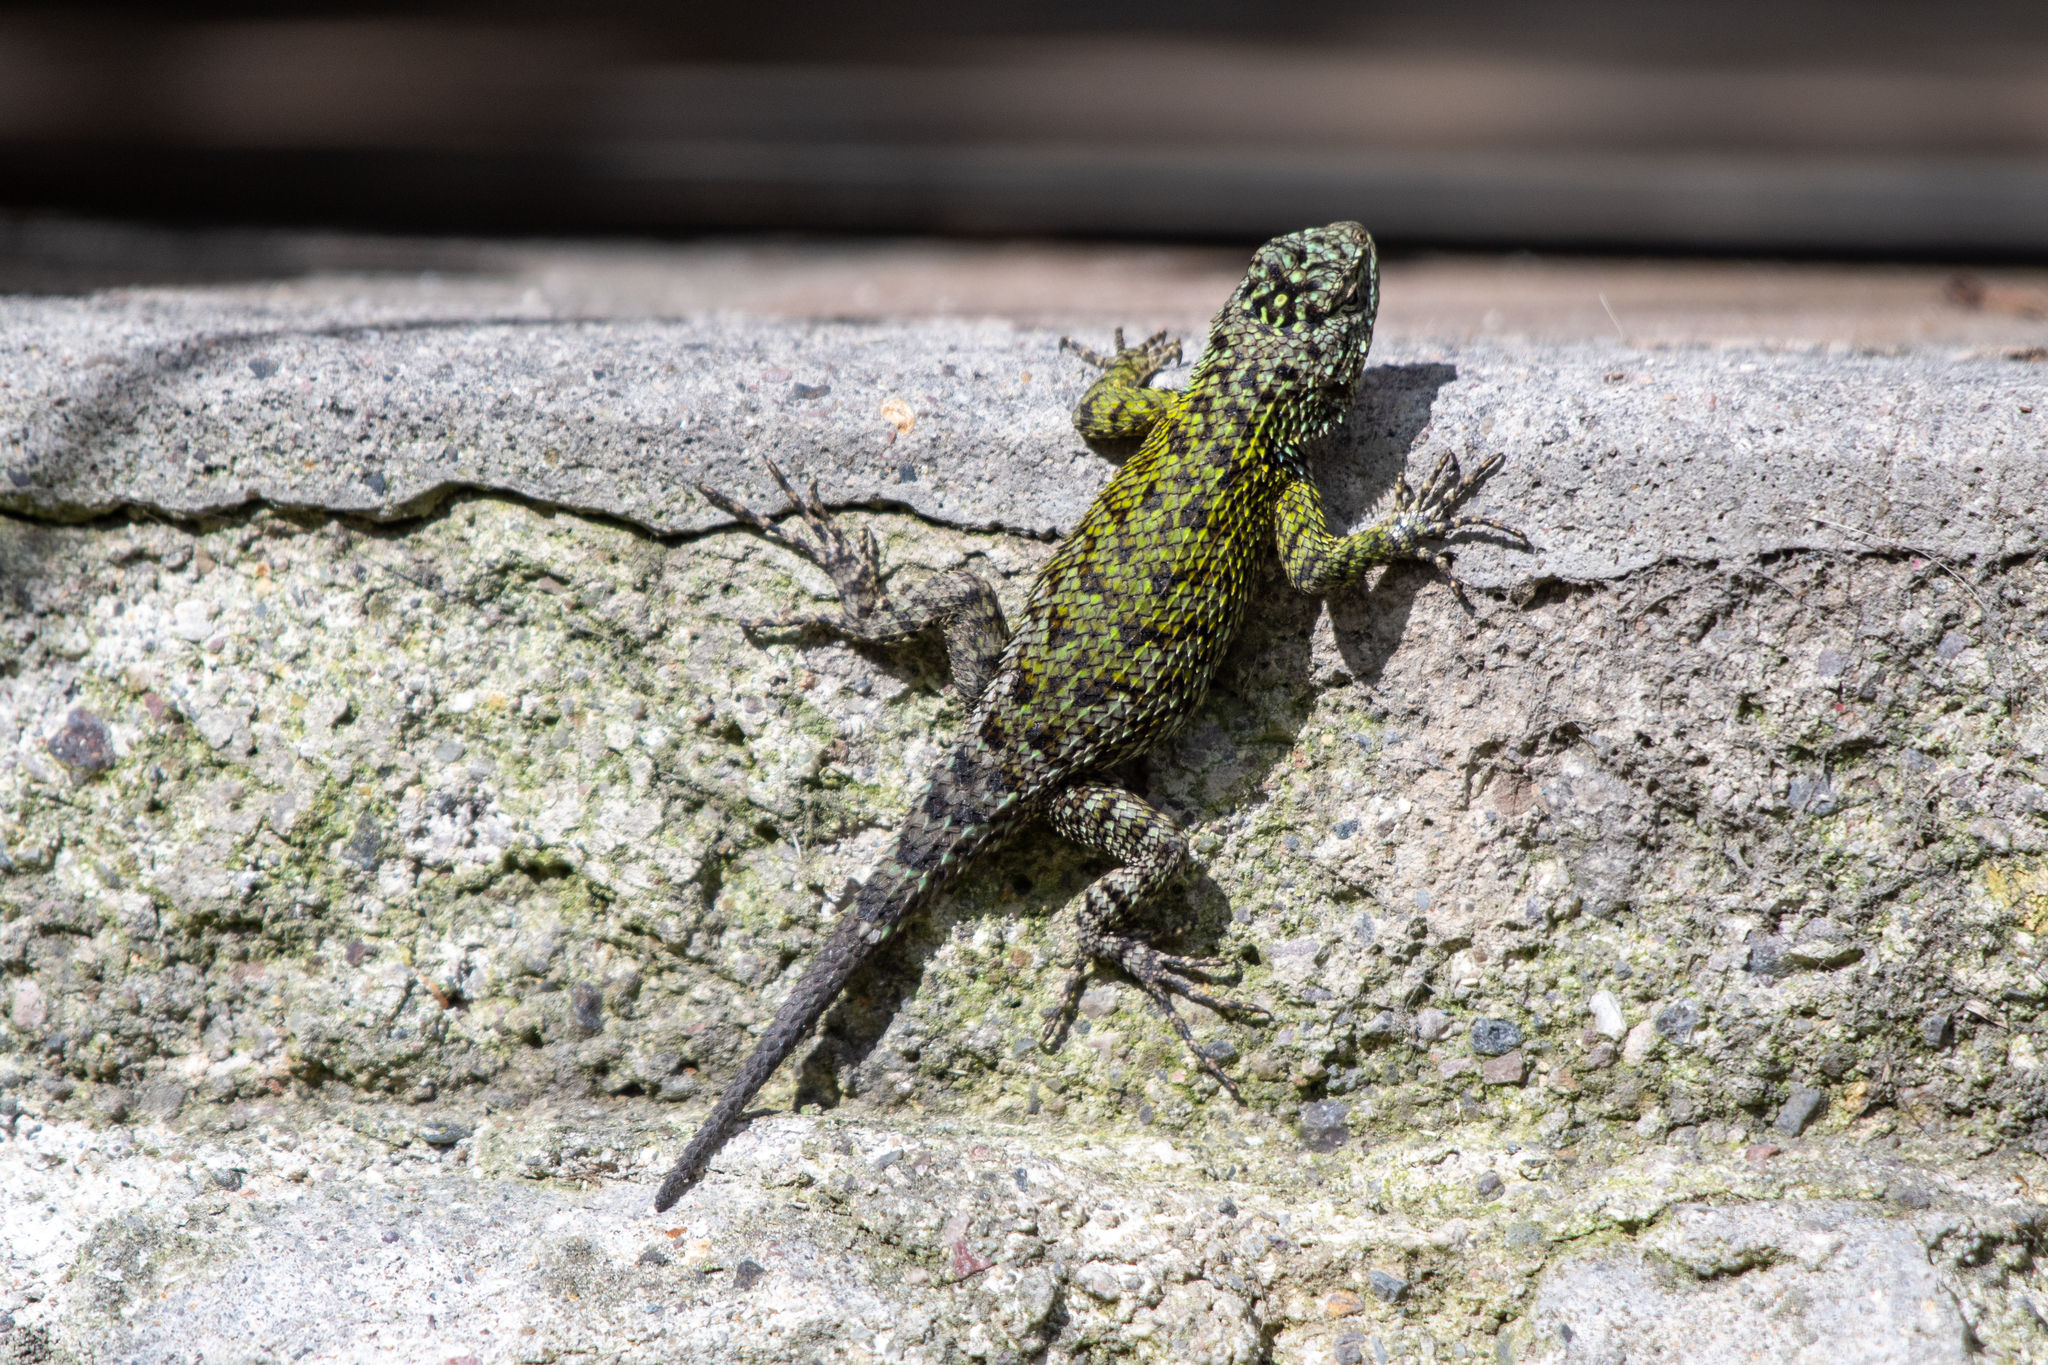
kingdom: Animalia
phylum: Chordata
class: Squamata
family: Phrynosomatidae
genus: Sceloporus
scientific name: Sceloporus esperanzae
